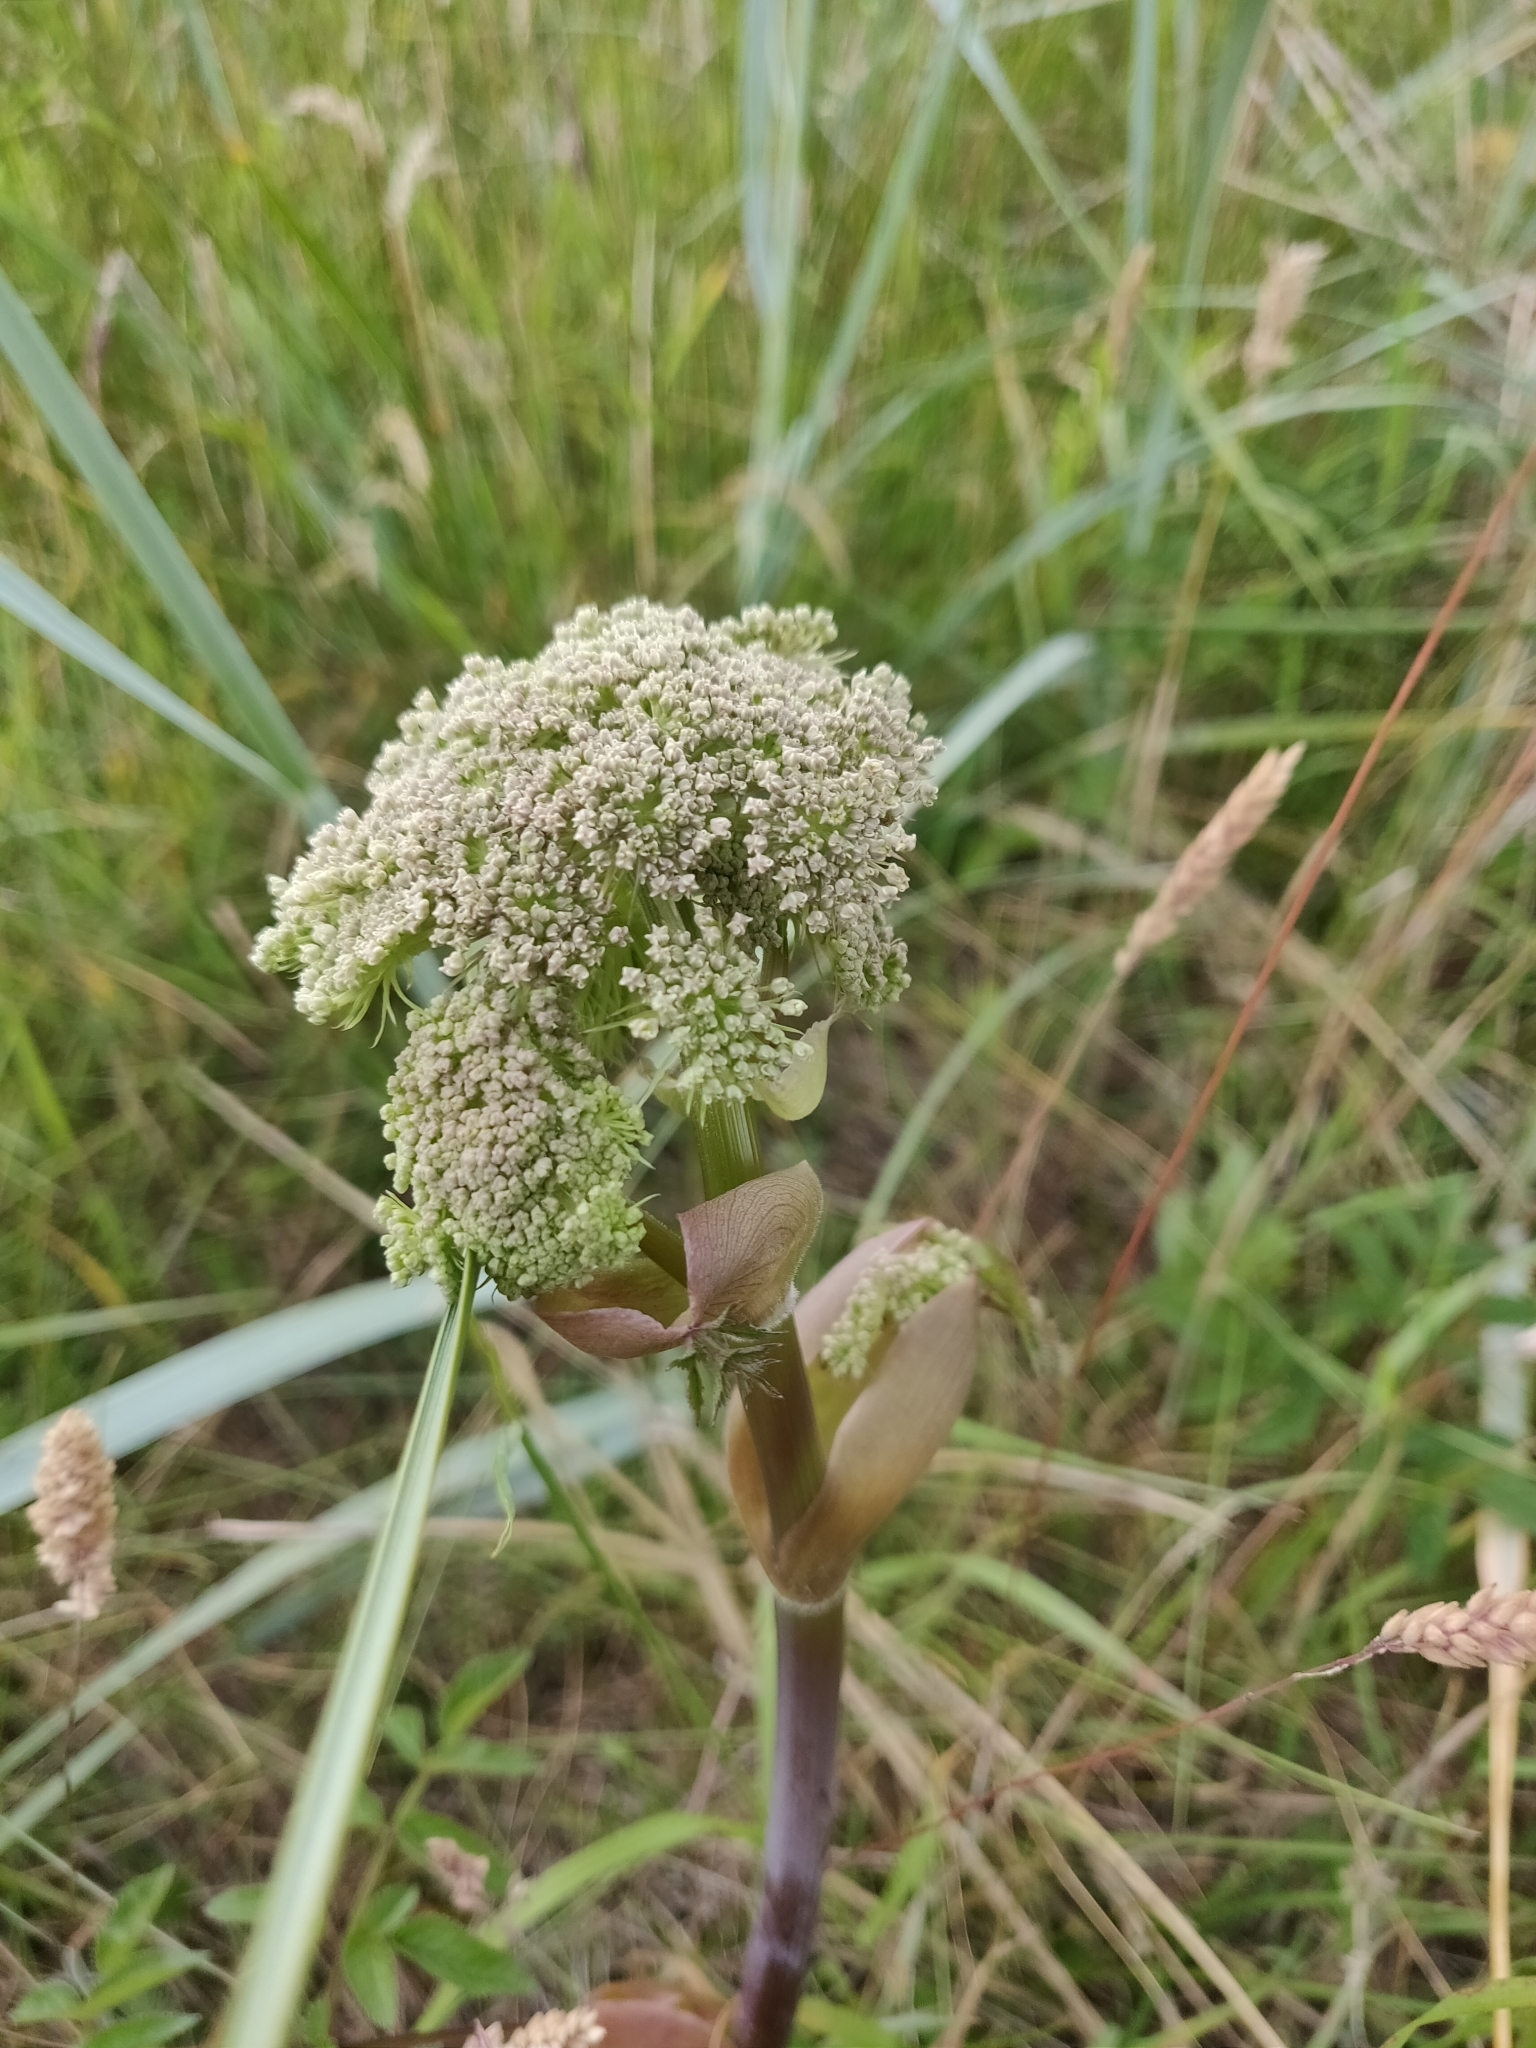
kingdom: Plantae
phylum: Tracheophyta
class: Magnoliopsida
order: Apiales
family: Apiaceae
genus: Angelica
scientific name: Angelica sylvestris
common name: Wild angelica
